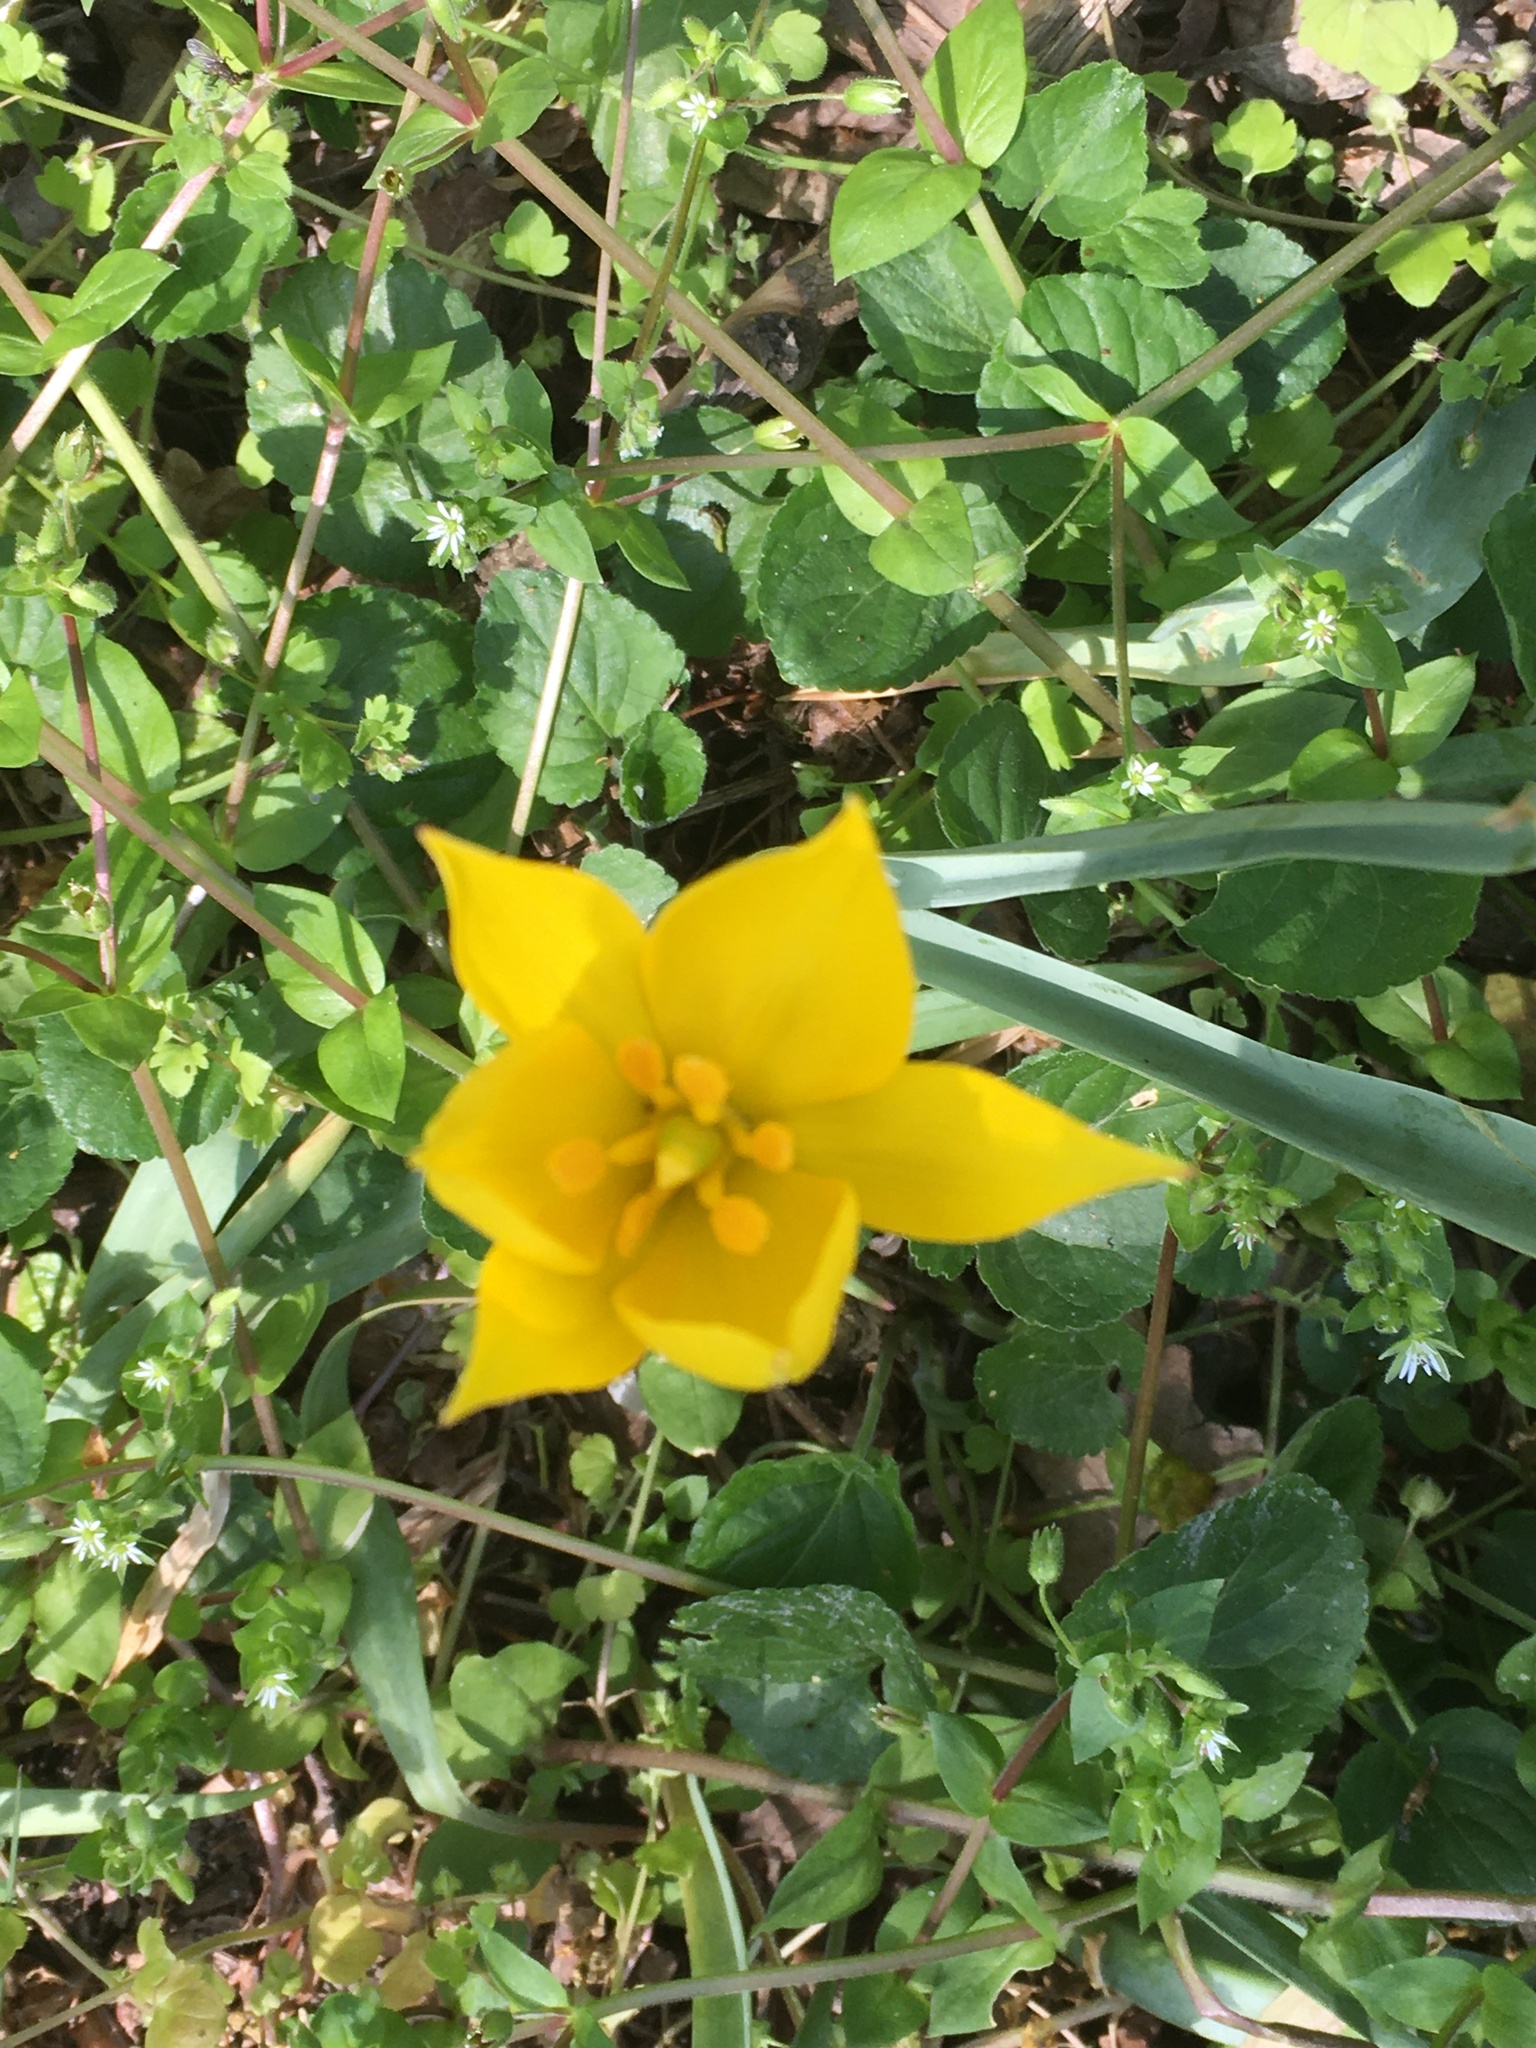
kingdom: Plantae
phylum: Tracheophyta
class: Liliopsida
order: Liliales
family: Liliaceae
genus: Tulipa
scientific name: Tulipa sylvestris
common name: Wild tulip
